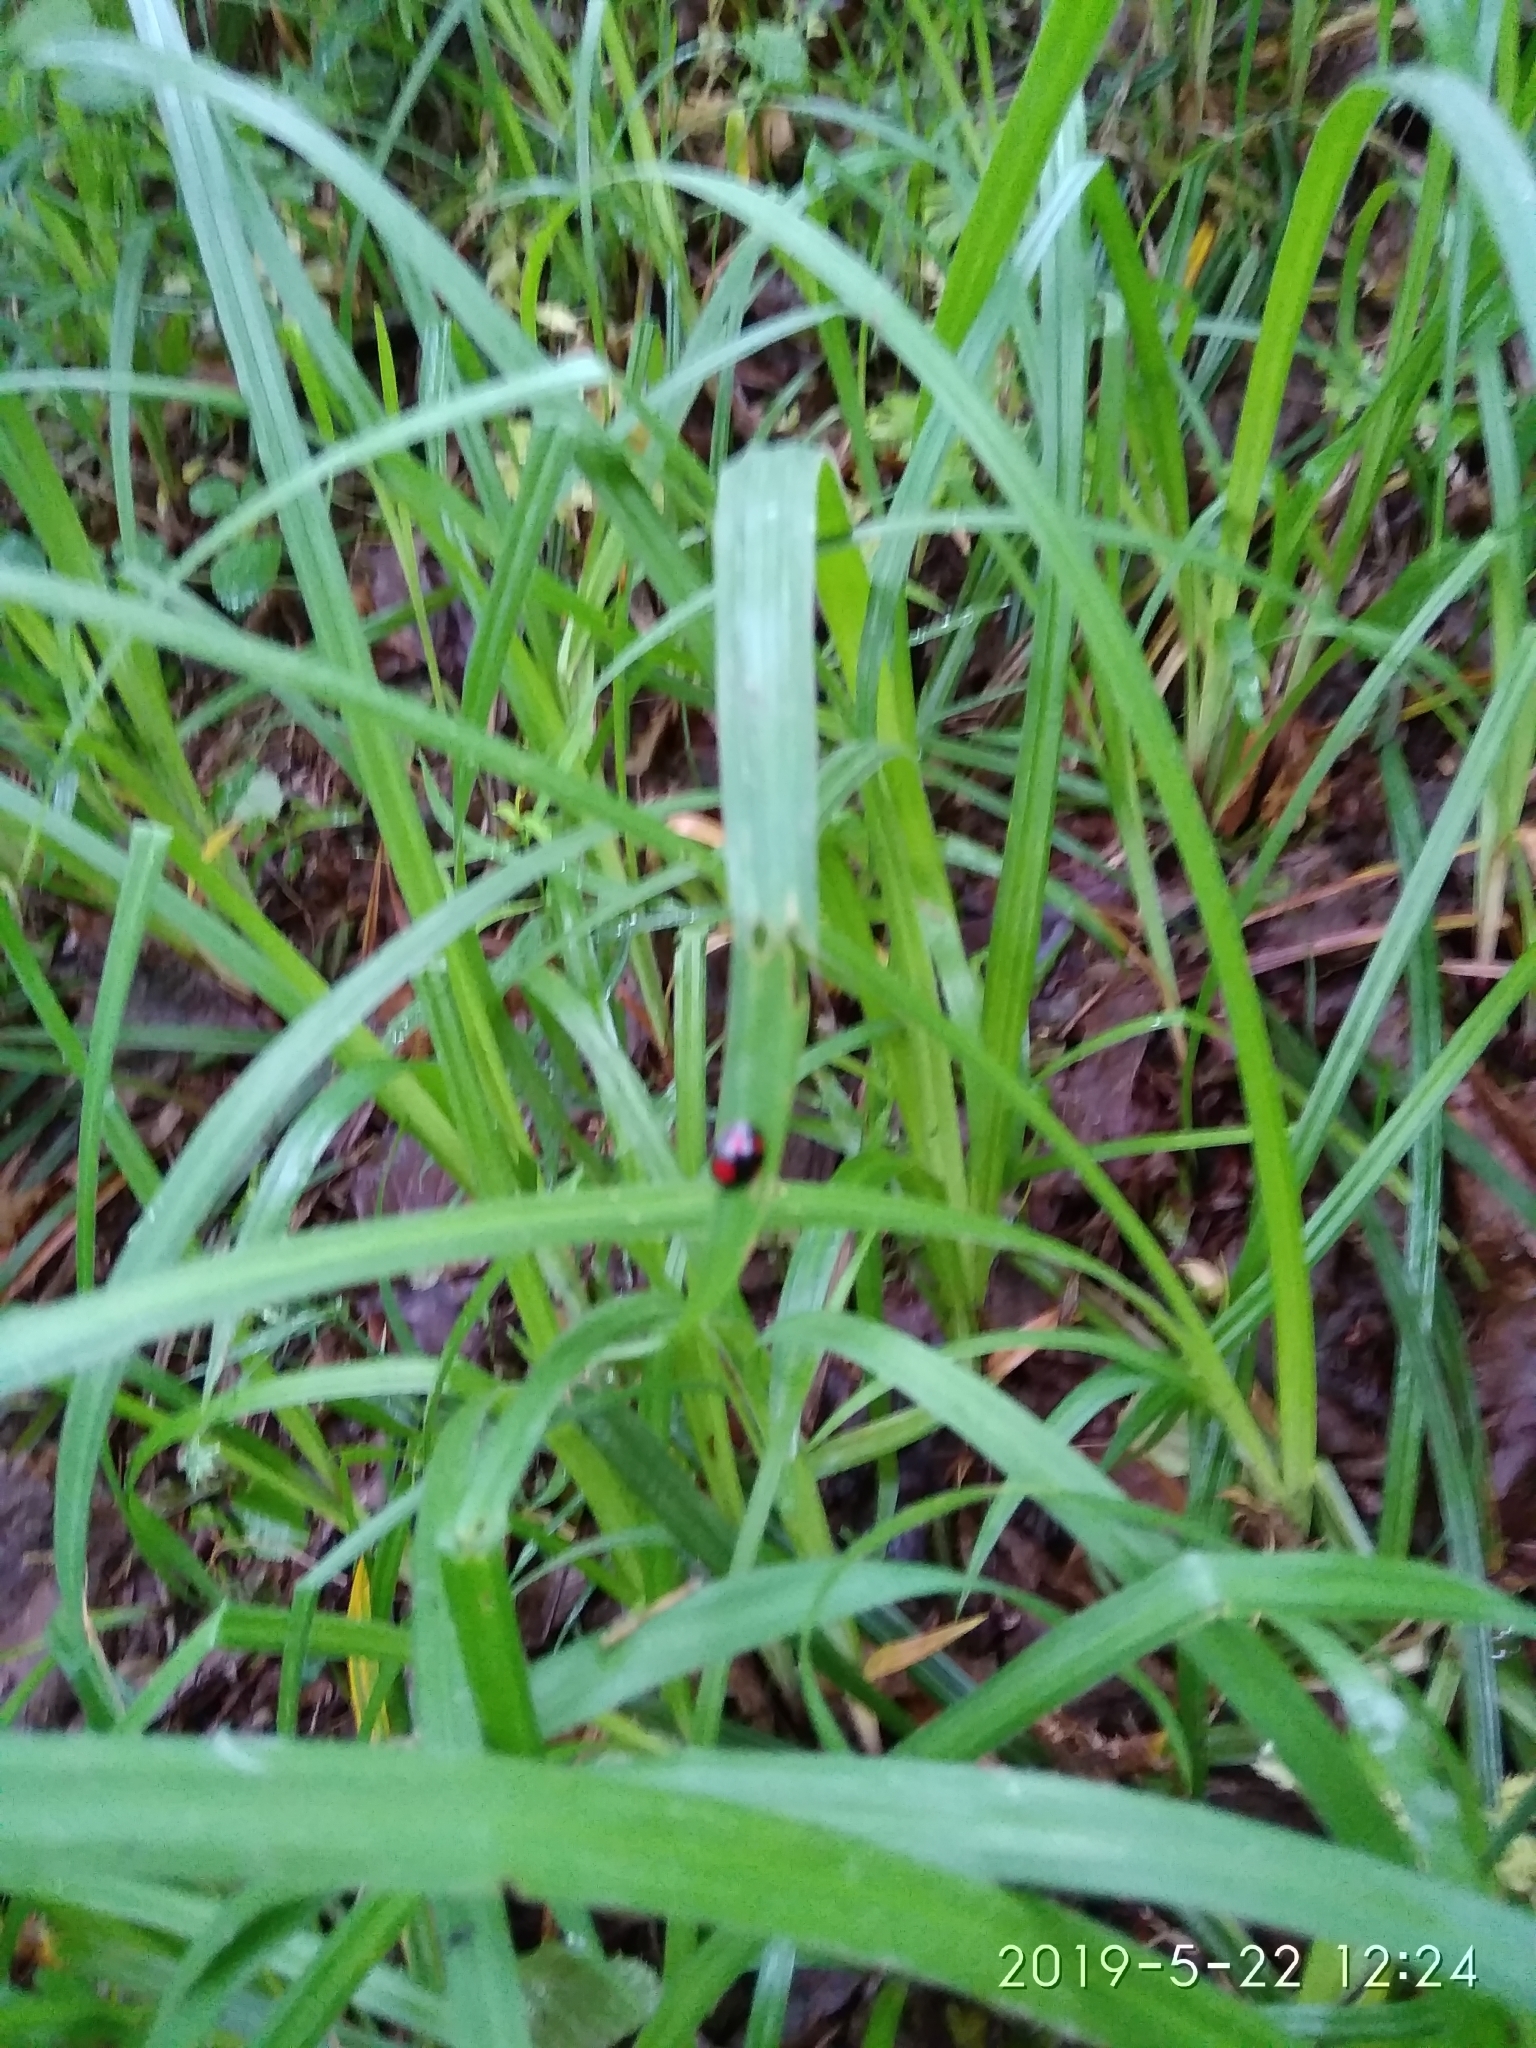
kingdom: Animalia
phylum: Arthropoda
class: Insecta
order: Coleoptera
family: Coccinellidae
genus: Harmonia
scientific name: Harmonia axyridis
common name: Harlequin ladybird
